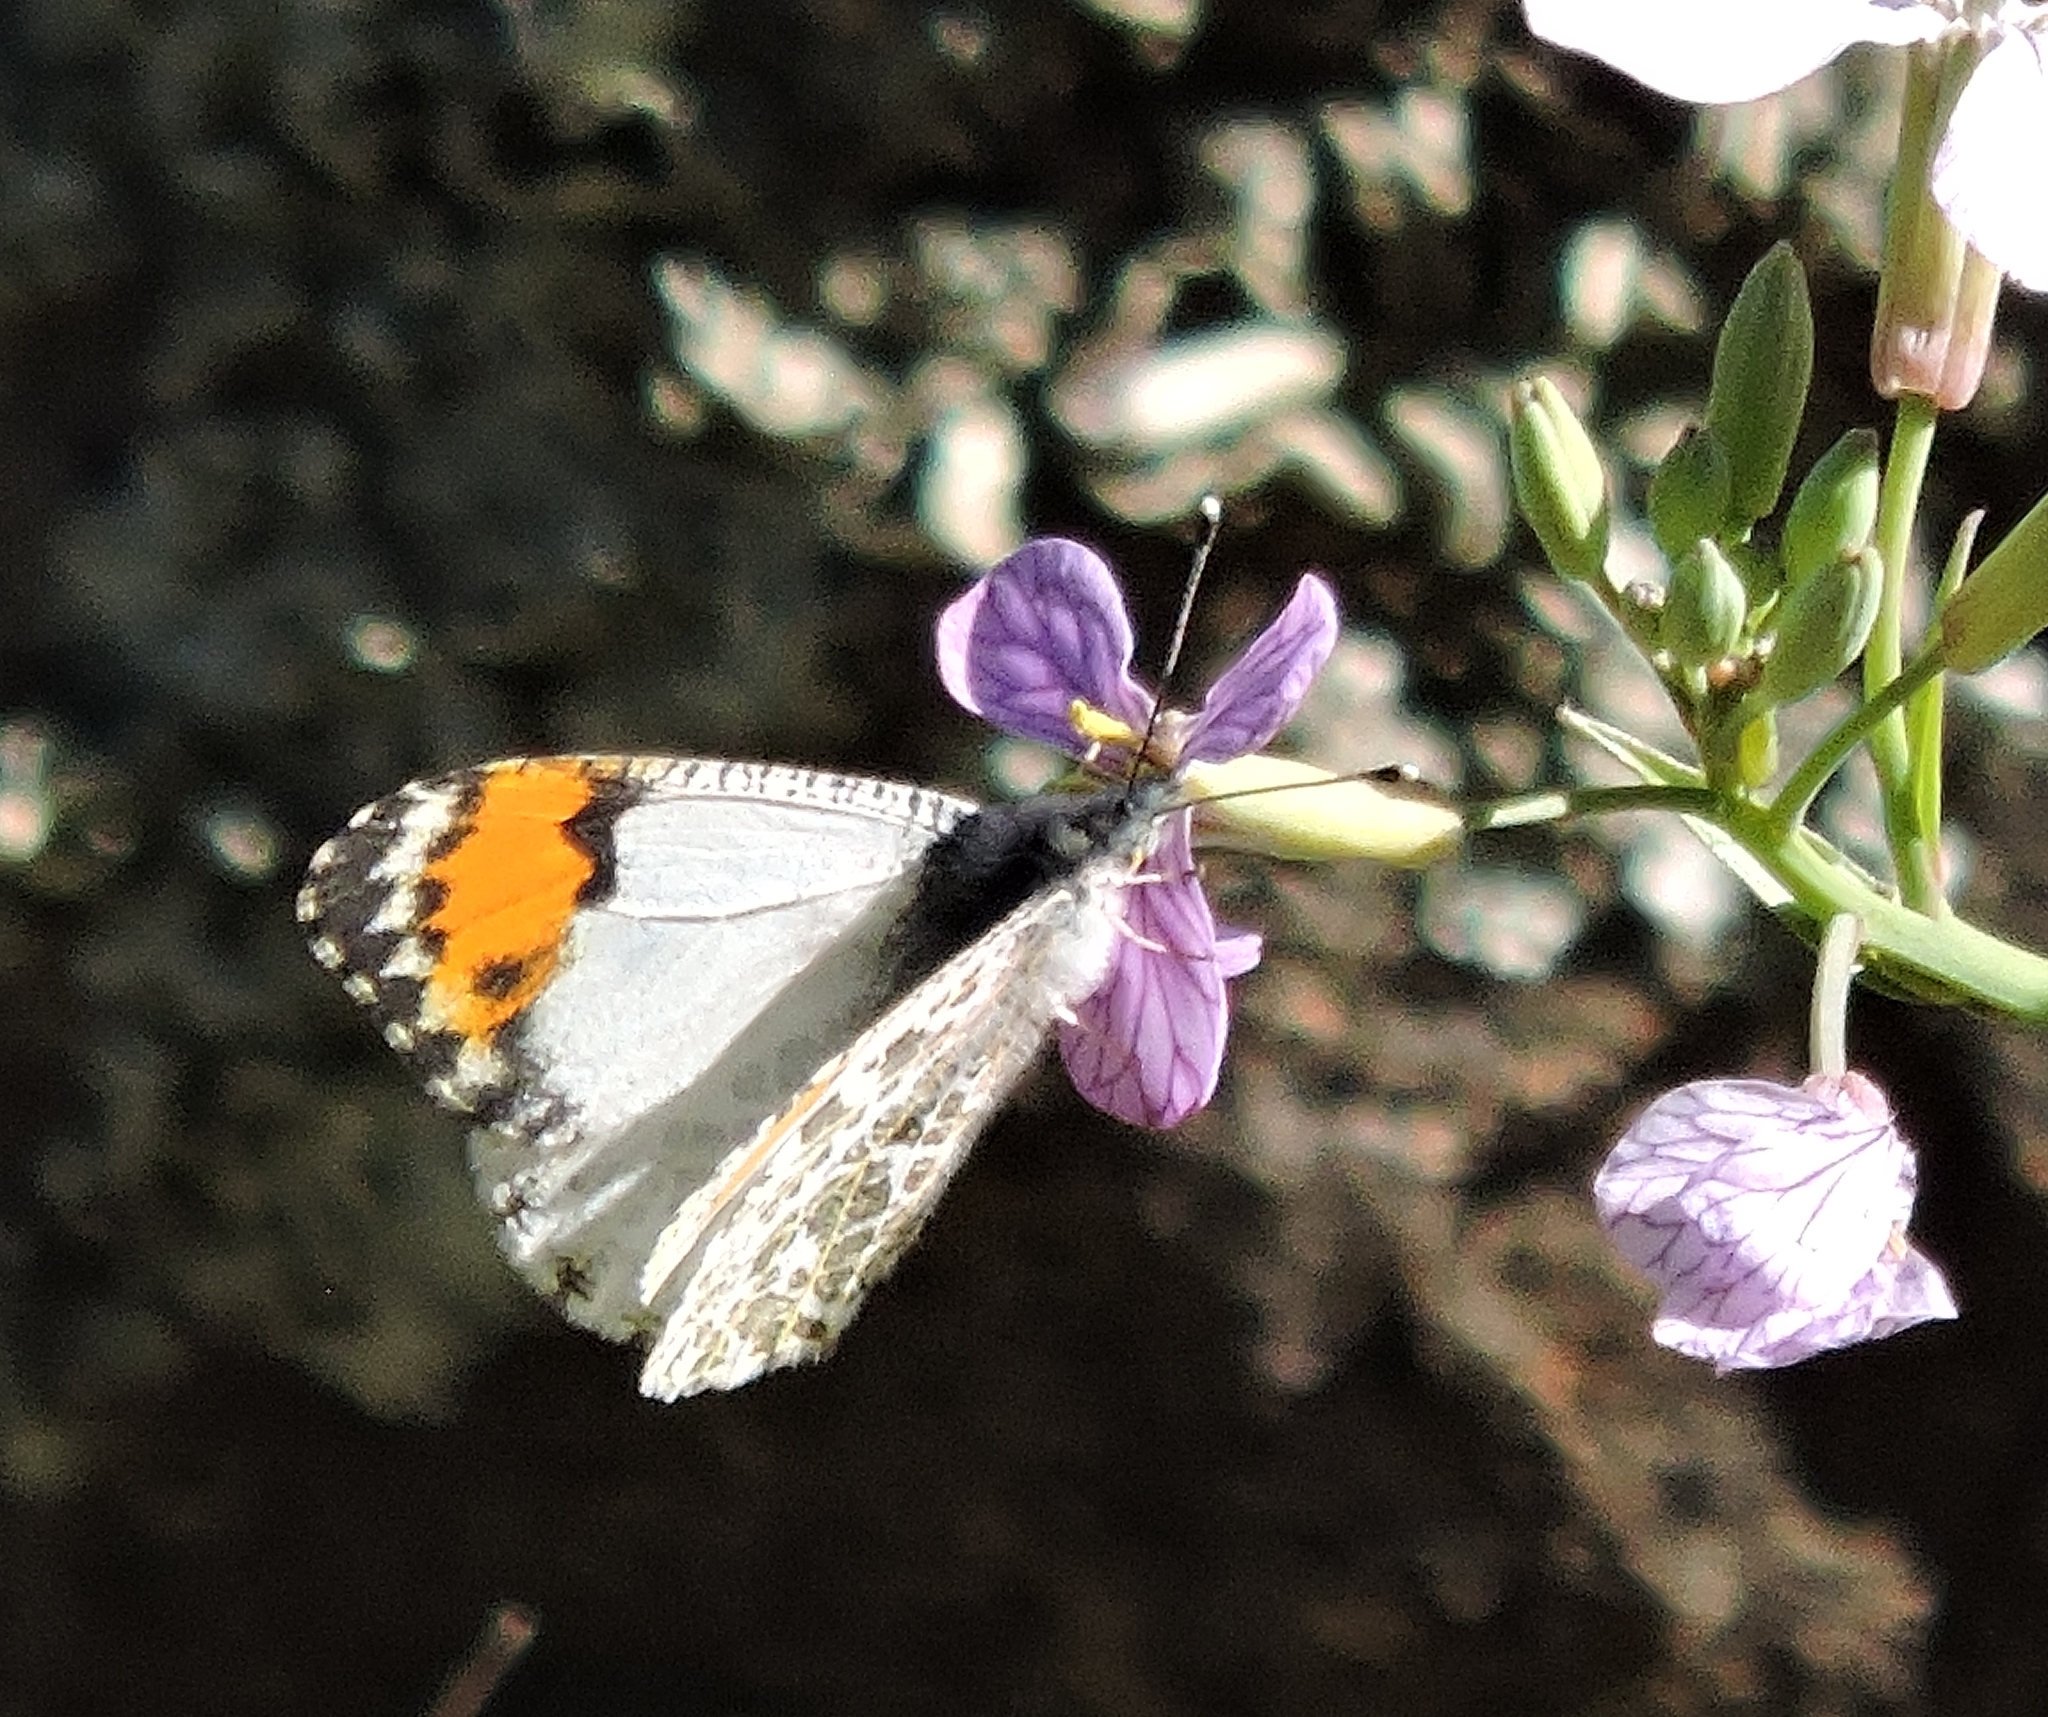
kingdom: Animalia
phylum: Arthropoda
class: Insecta
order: Lepidoptera
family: Pieridae
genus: Anthocharis
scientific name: Anthocharis sara
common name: Sara's orangetip
